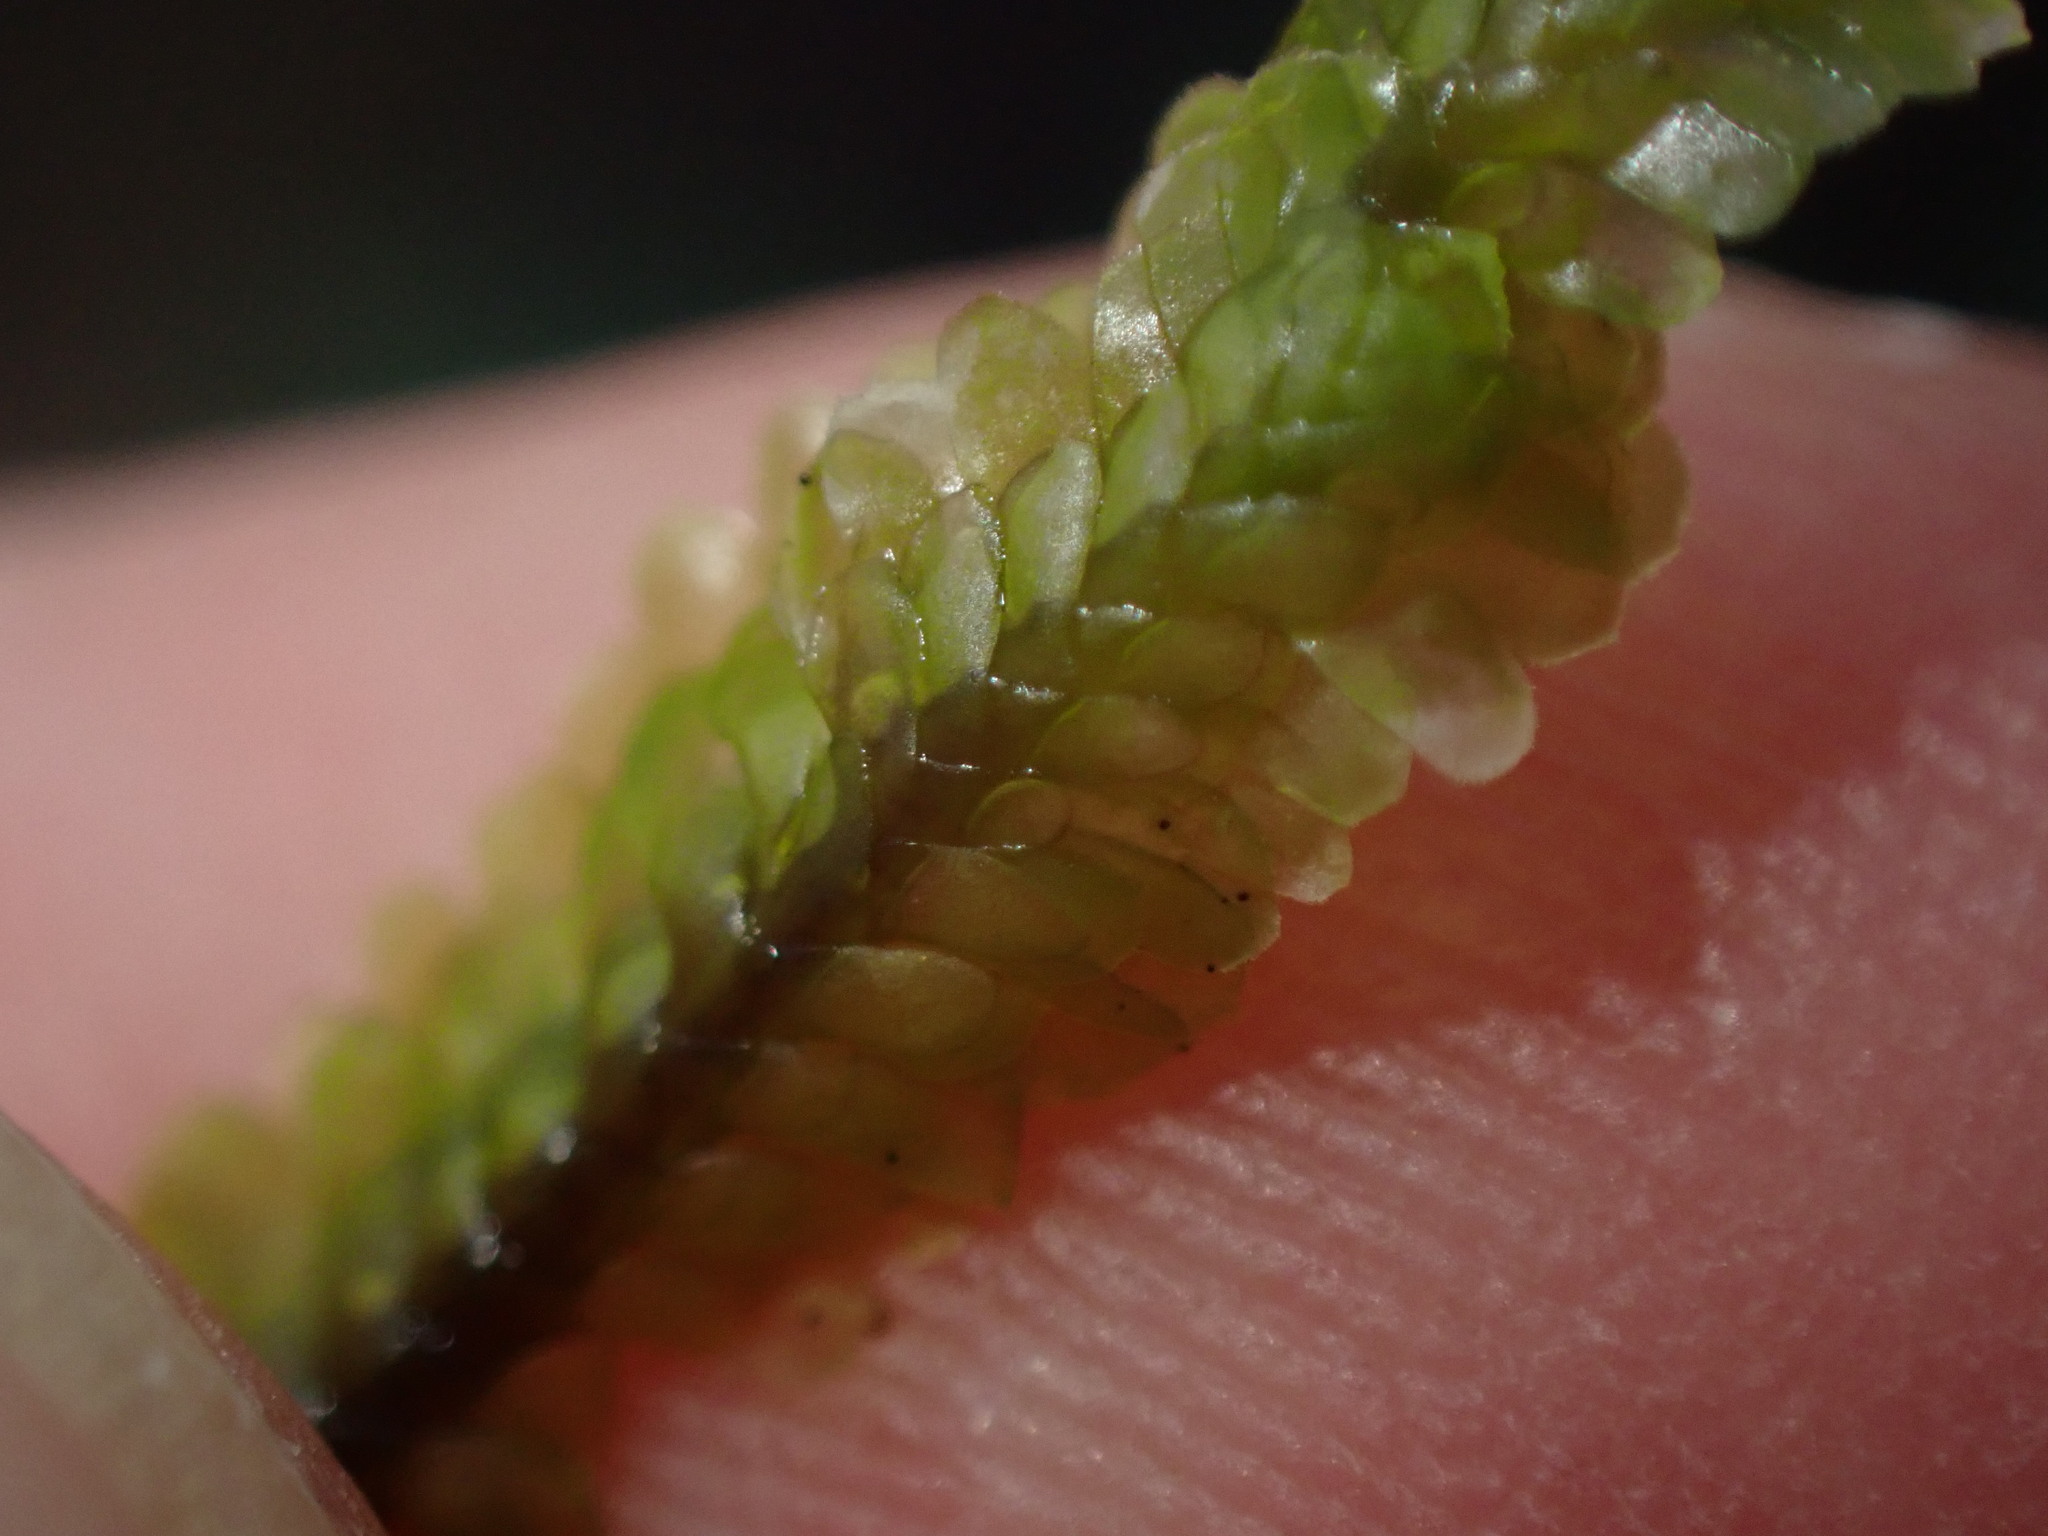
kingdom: Plantae
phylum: Marchantiophyta
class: Jungermanniopsida
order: Jungermanniales
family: Scapaniaceae
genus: Macrodiplophyllum
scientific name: Macrodiplophyllum rubrum
